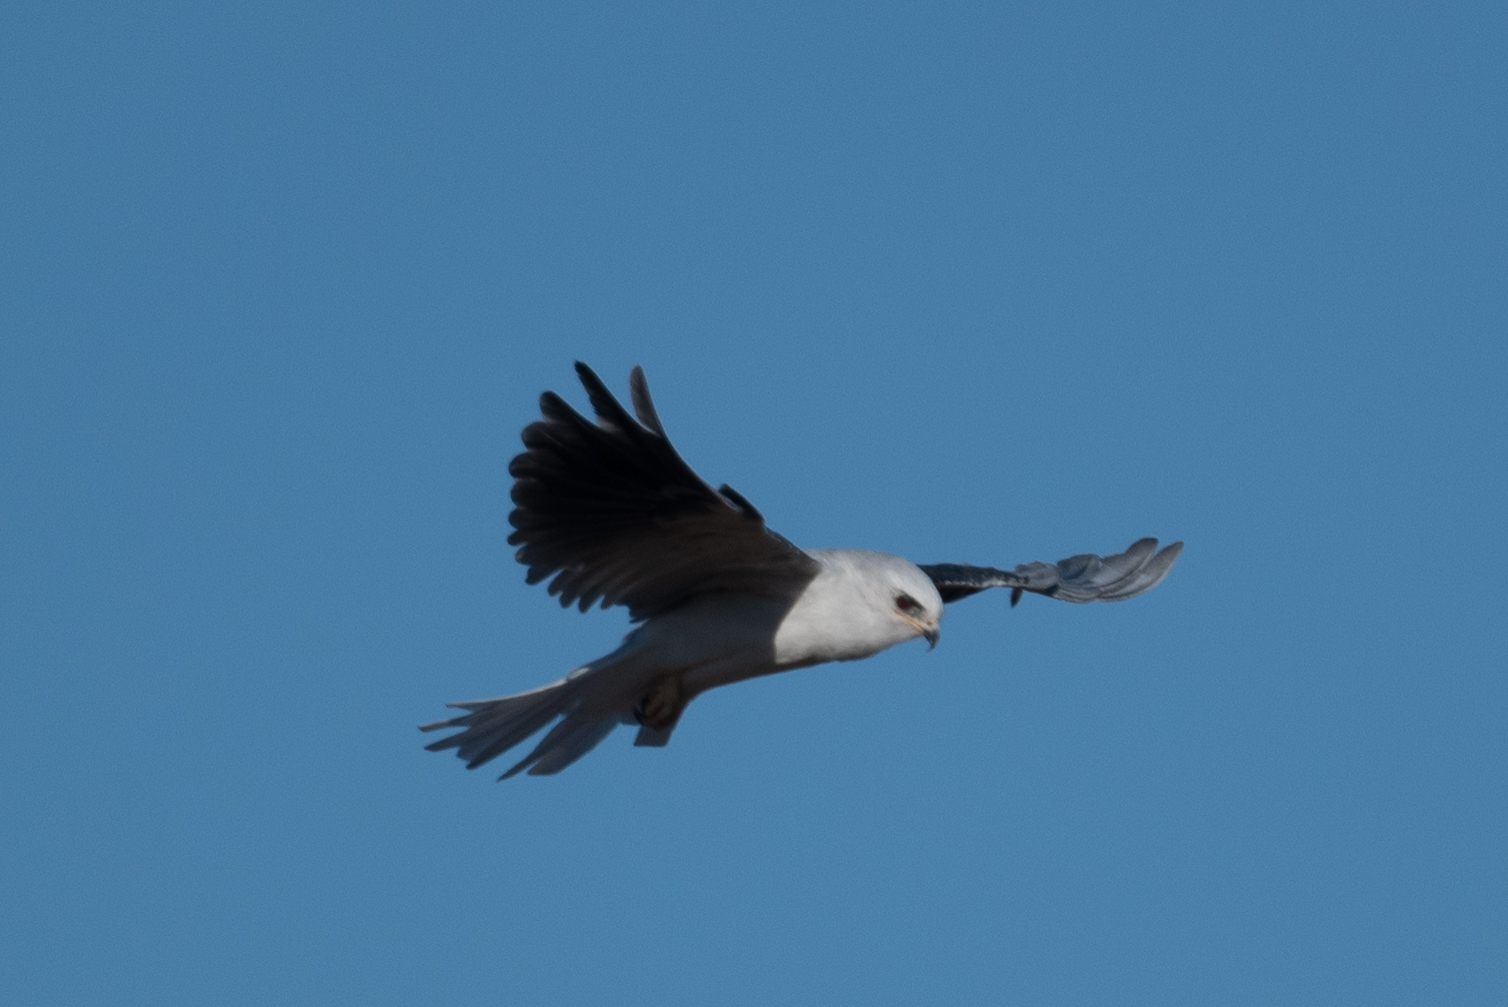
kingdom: Animalia
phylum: Chordata
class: Aves
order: Accipitriformes
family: Accipitridae
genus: Elanus
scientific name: Elanus leucurus
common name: White-tailed kite
